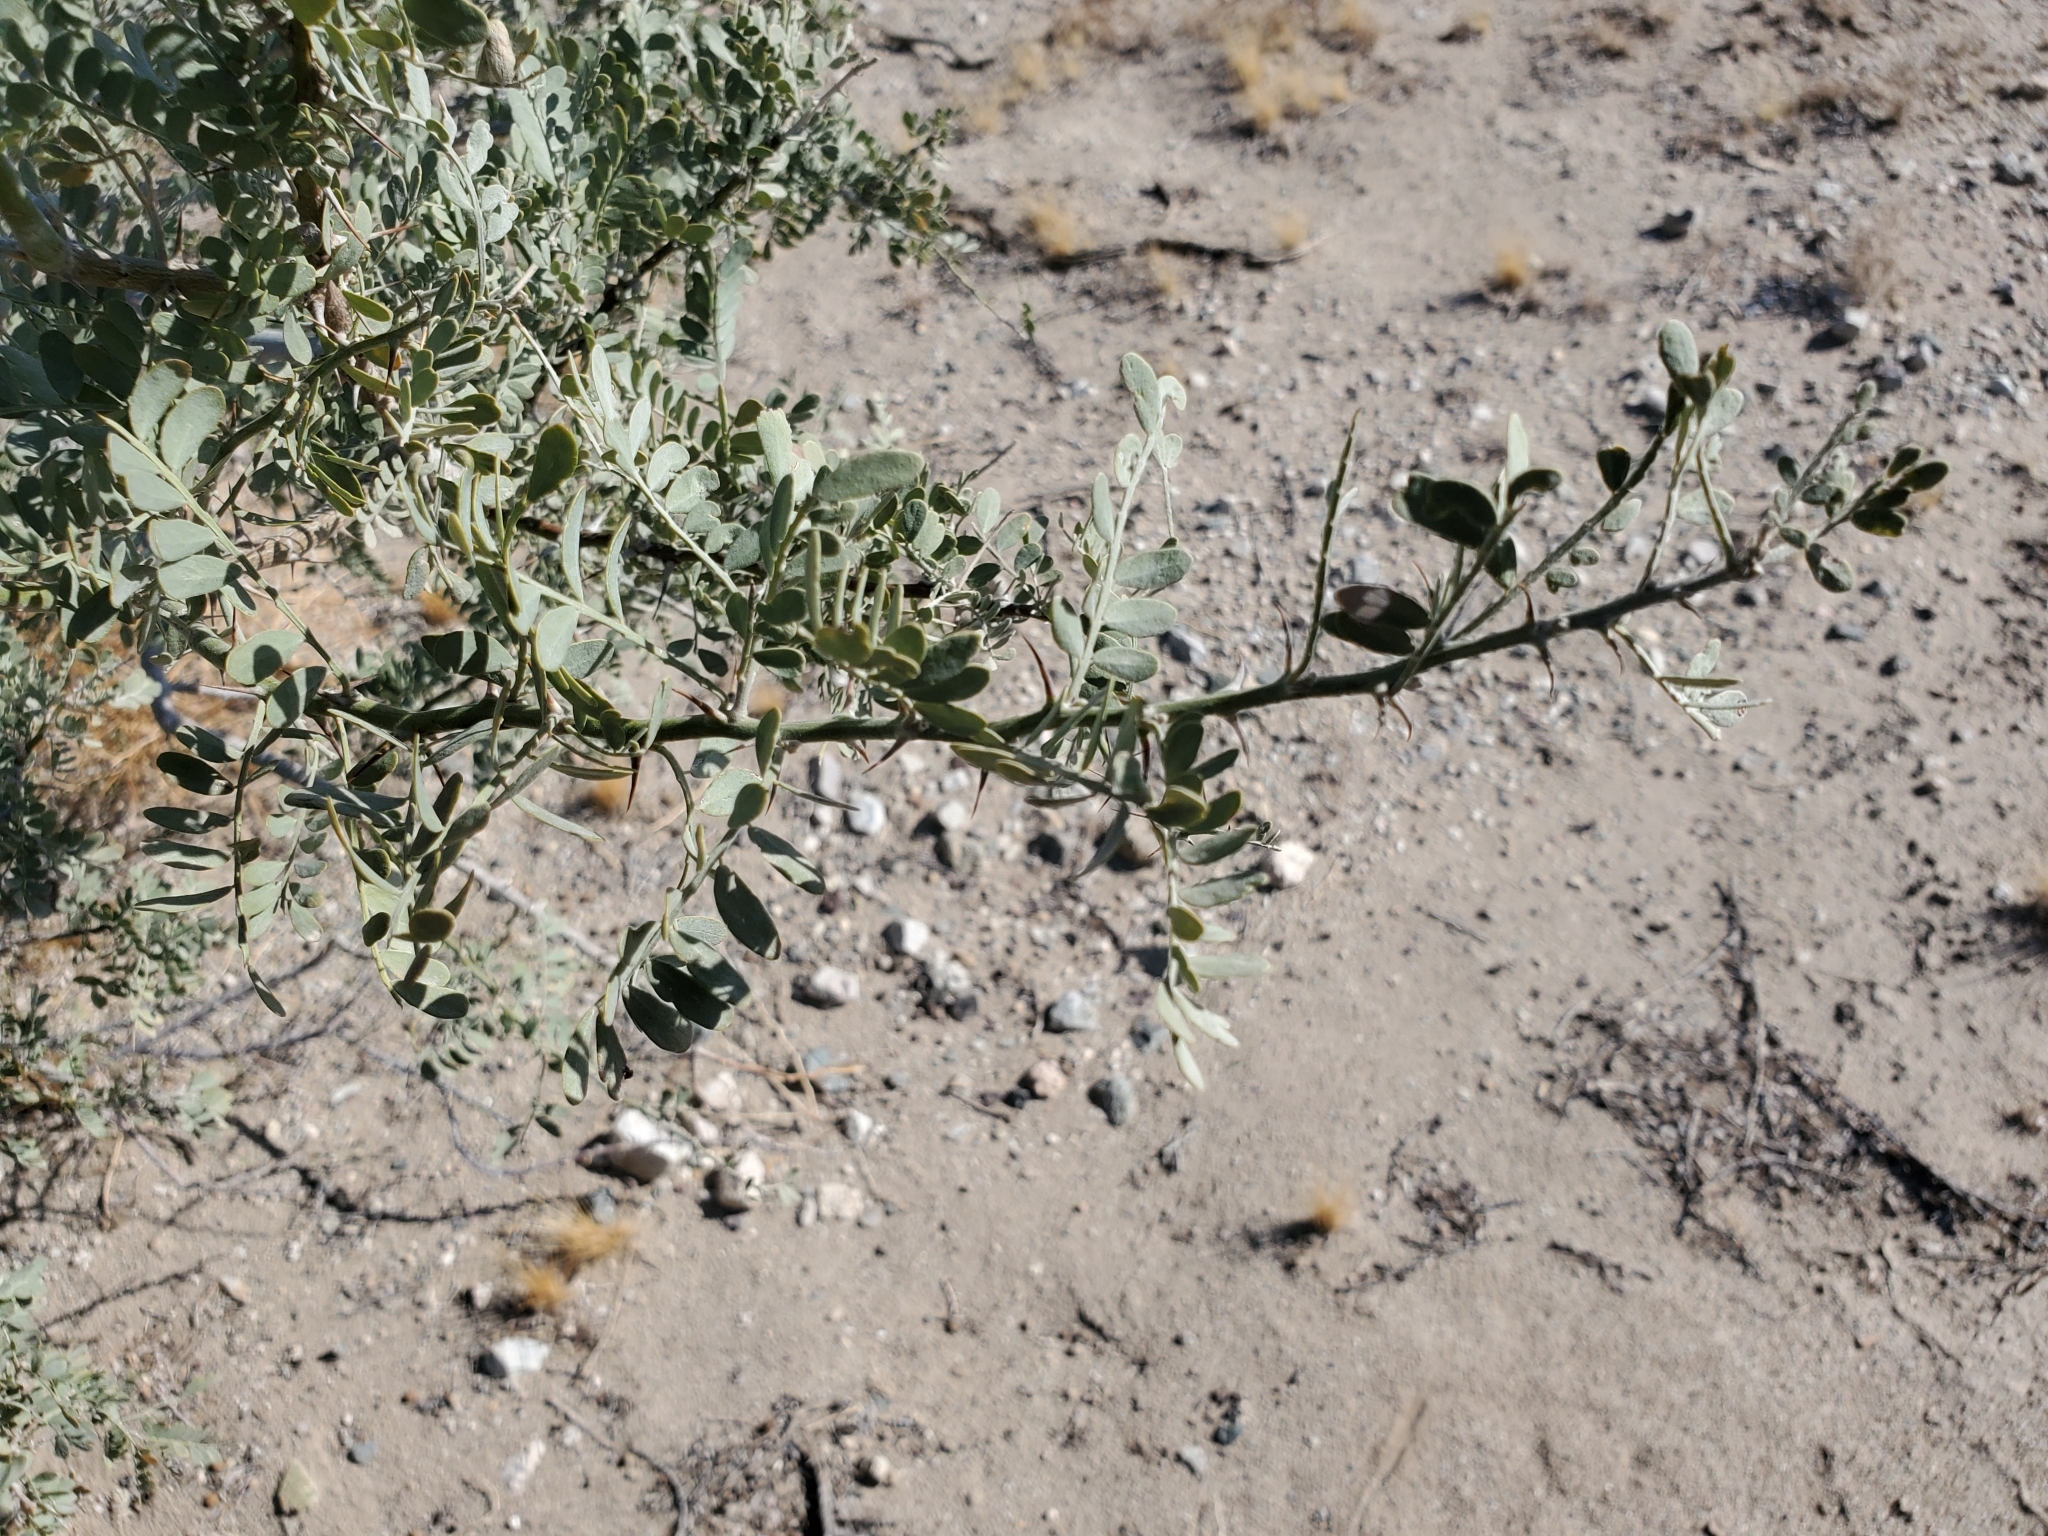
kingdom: Plantae
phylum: Tracheophyta
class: Magnoliopsida
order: Fabales
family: Fabaceae
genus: Olneya
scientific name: Olneya tesota
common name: Desert ironwood
